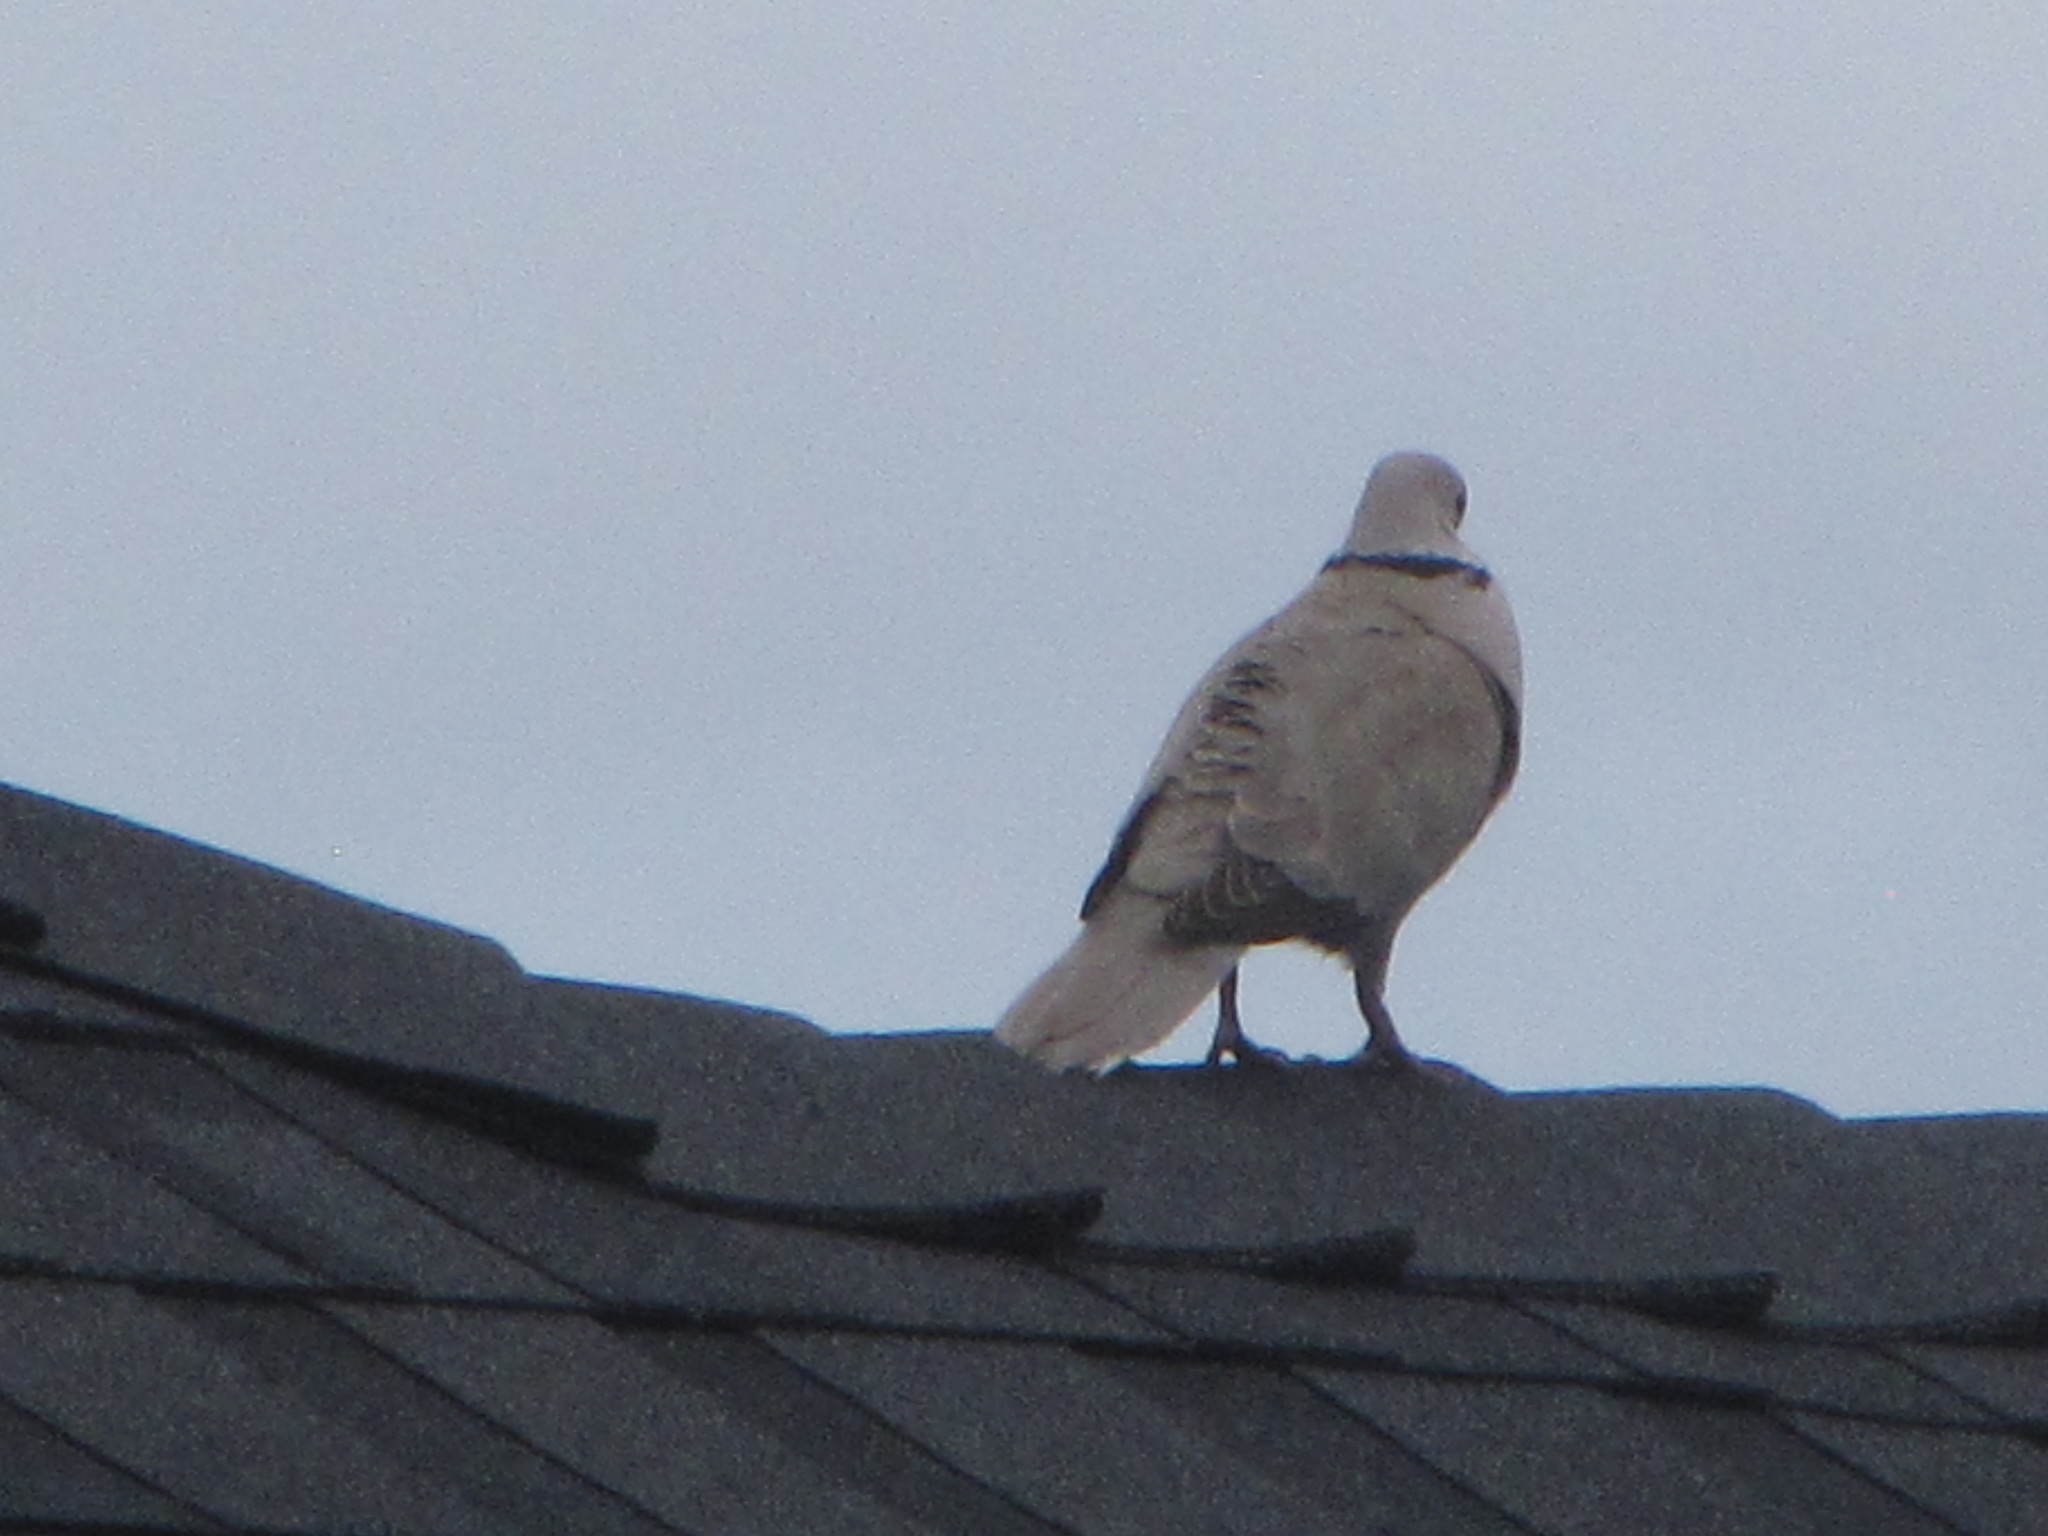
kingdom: Animalia
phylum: Chordata
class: Aves
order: Columbiformes
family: Columbidae
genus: Streptopelia
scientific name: Streptopelia decaocto
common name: Eurasian collared dove
